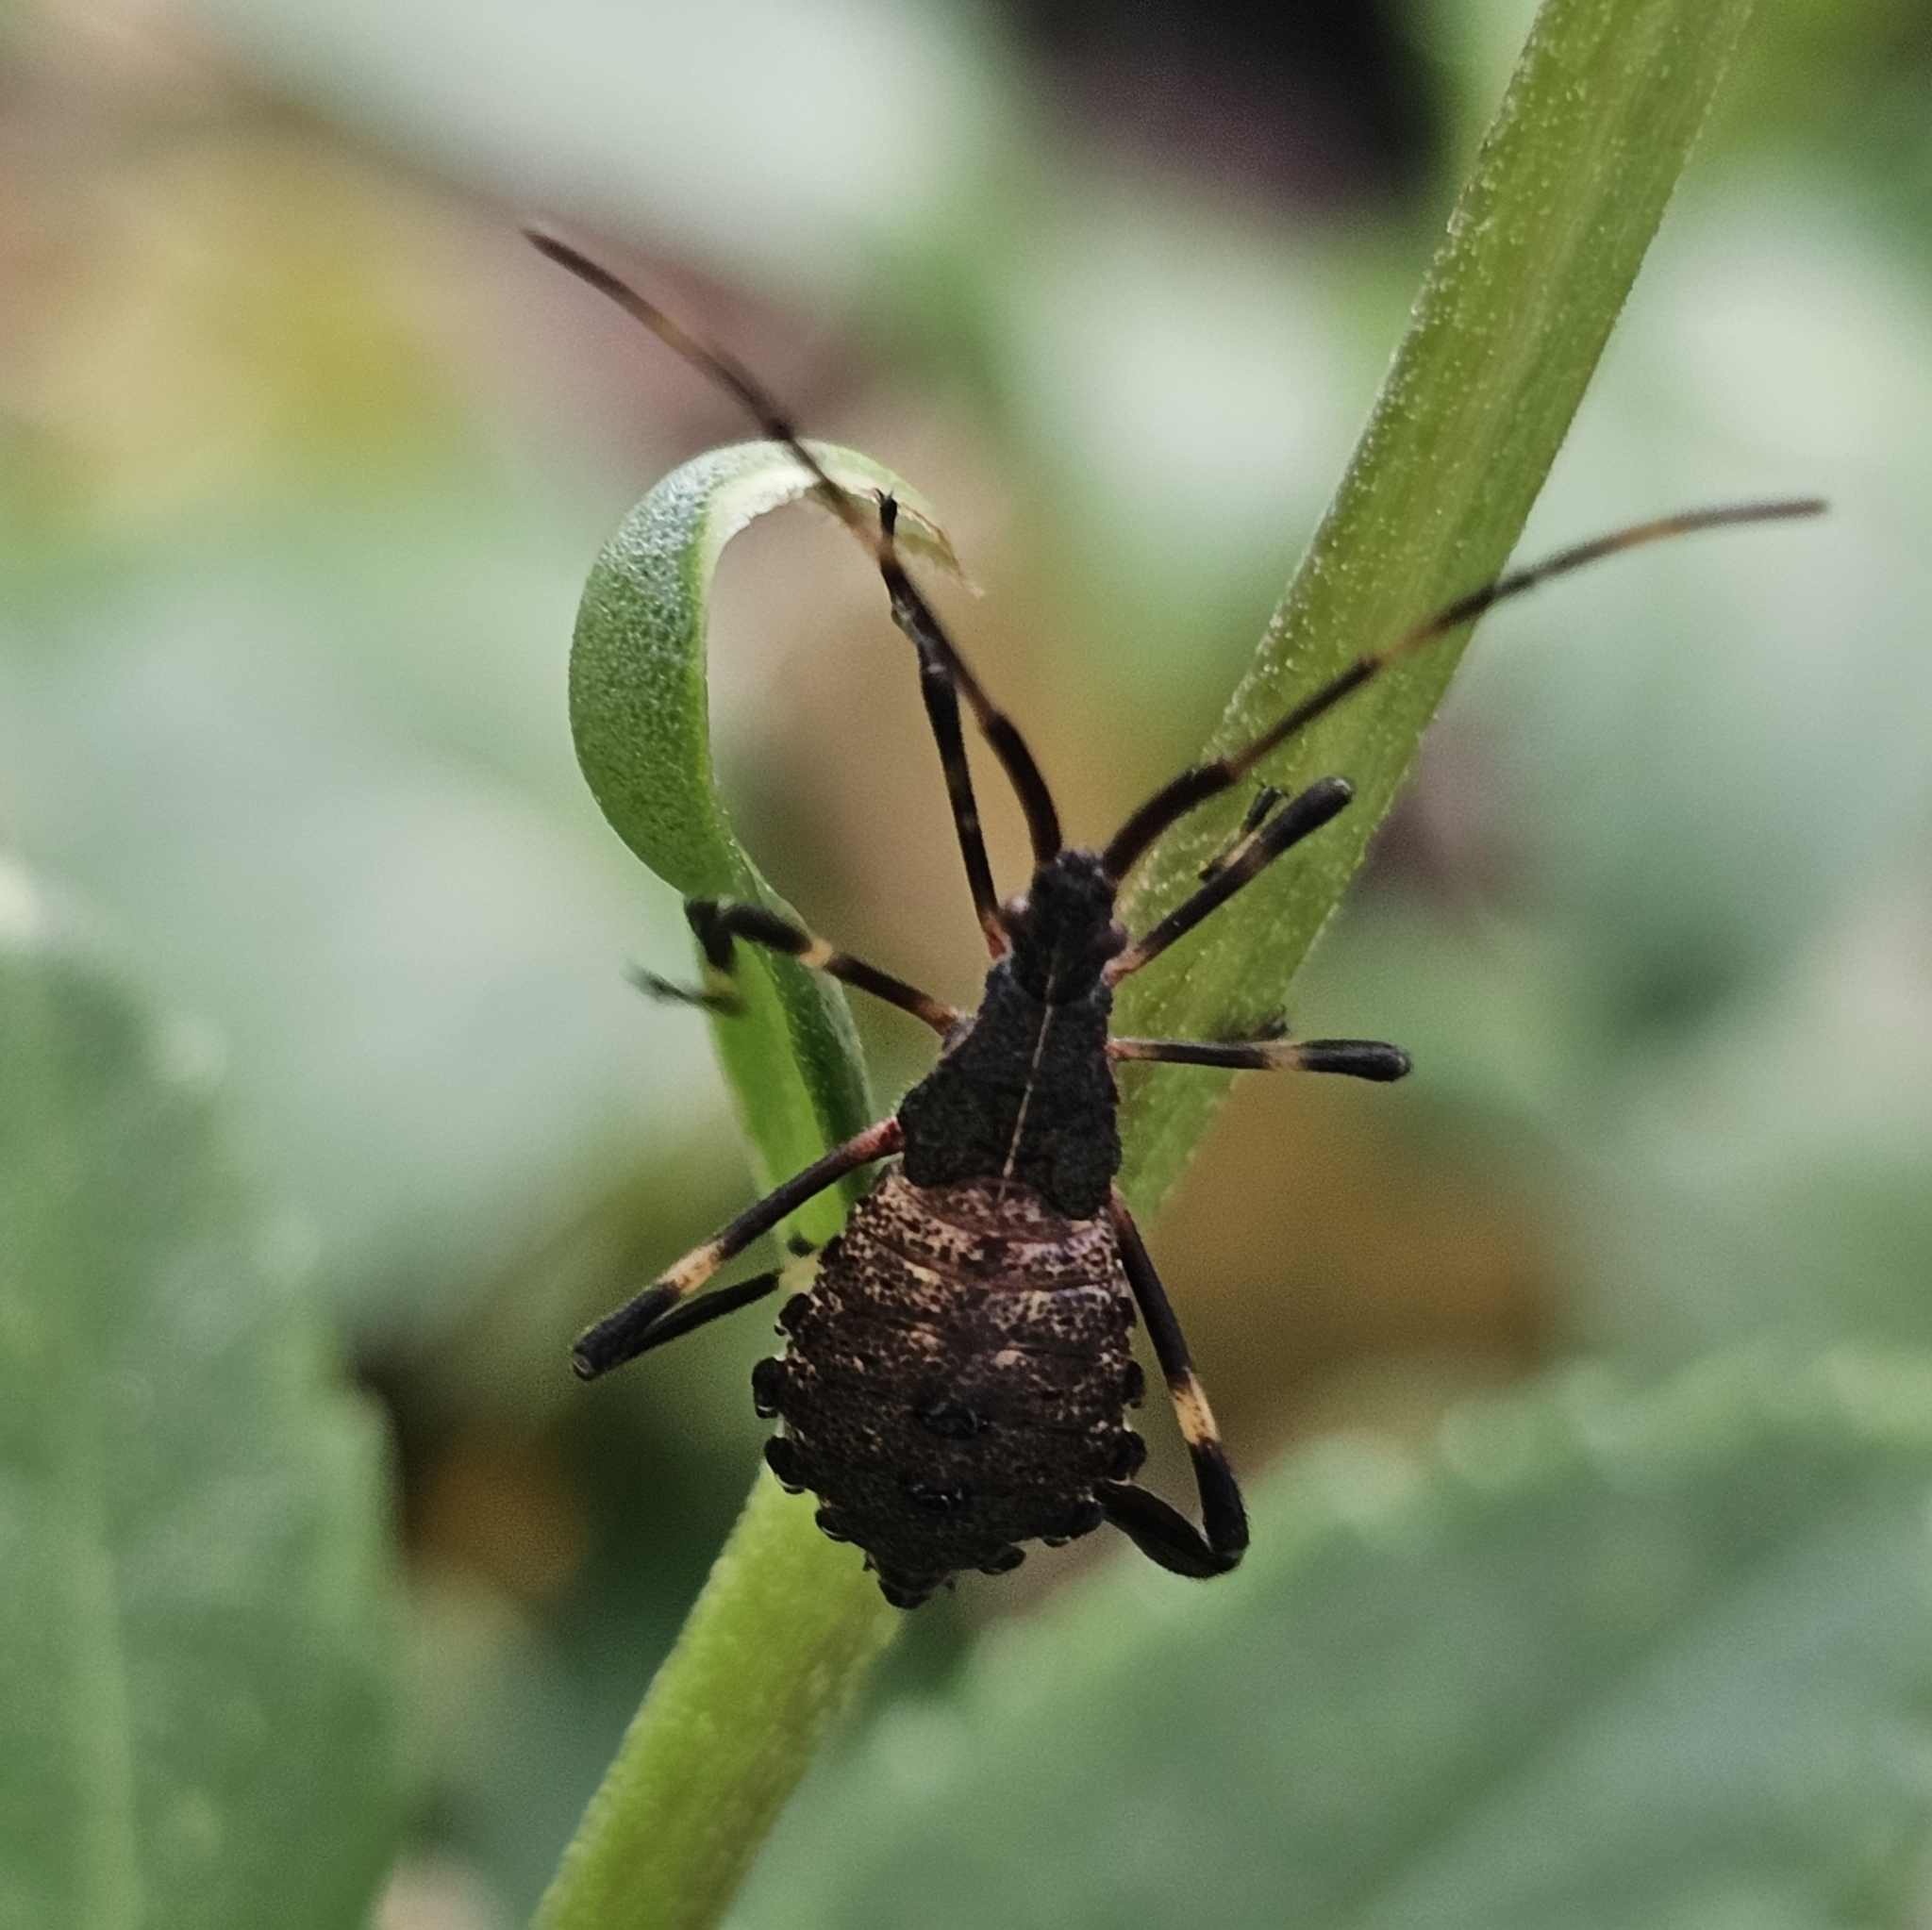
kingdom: Animalia
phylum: Arthropoda
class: Insecta
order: Hemiptera
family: Coreidae
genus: Acanthocephala
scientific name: Acanthocephala terminalis
